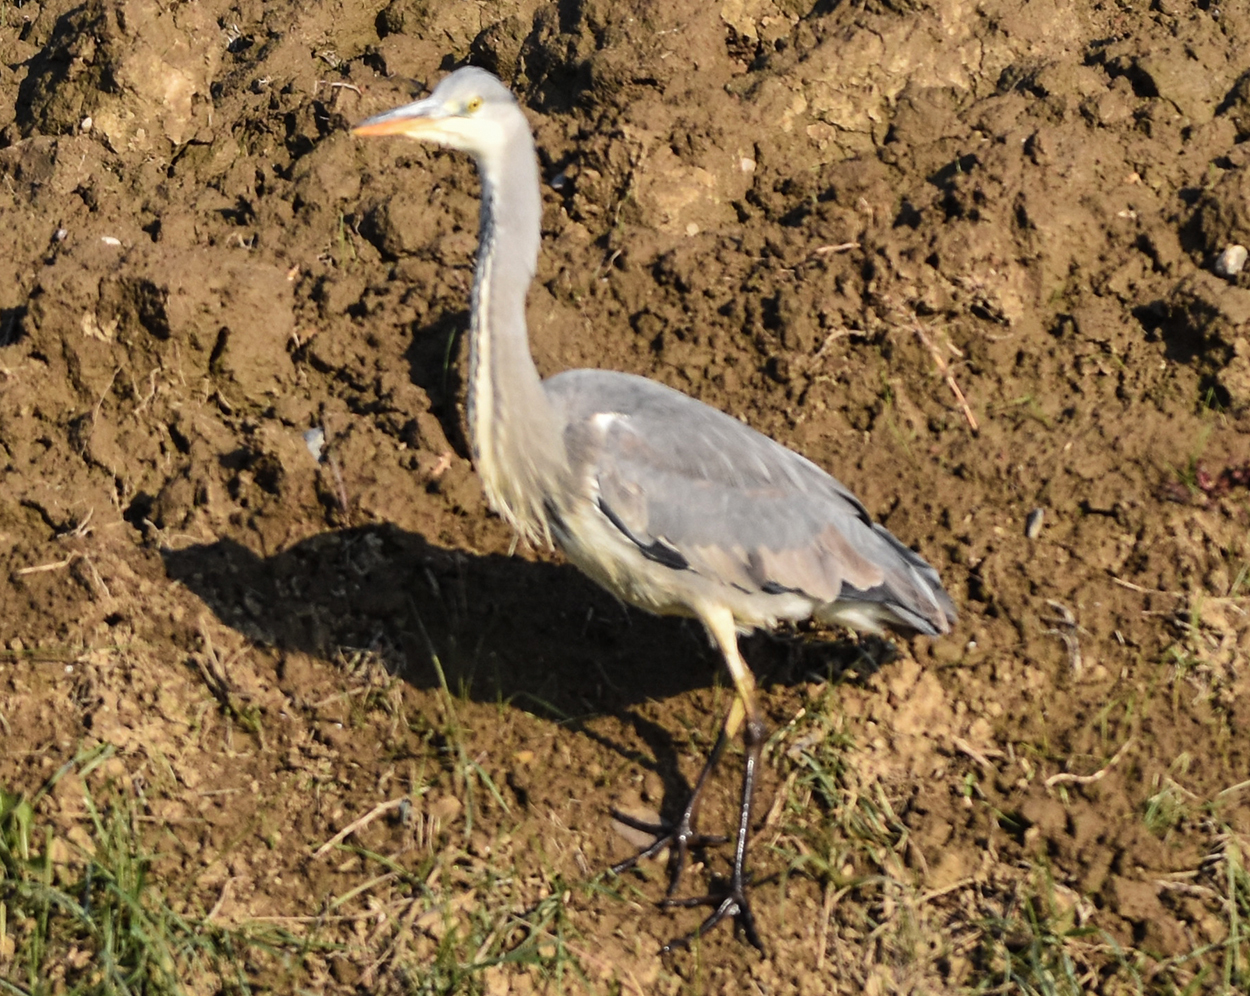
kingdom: Animalia
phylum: Chordata
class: Aves
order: Pelecaniformes
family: Ardeidae
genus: Ardea
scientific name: Ardea cinerea
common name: Grey heron
